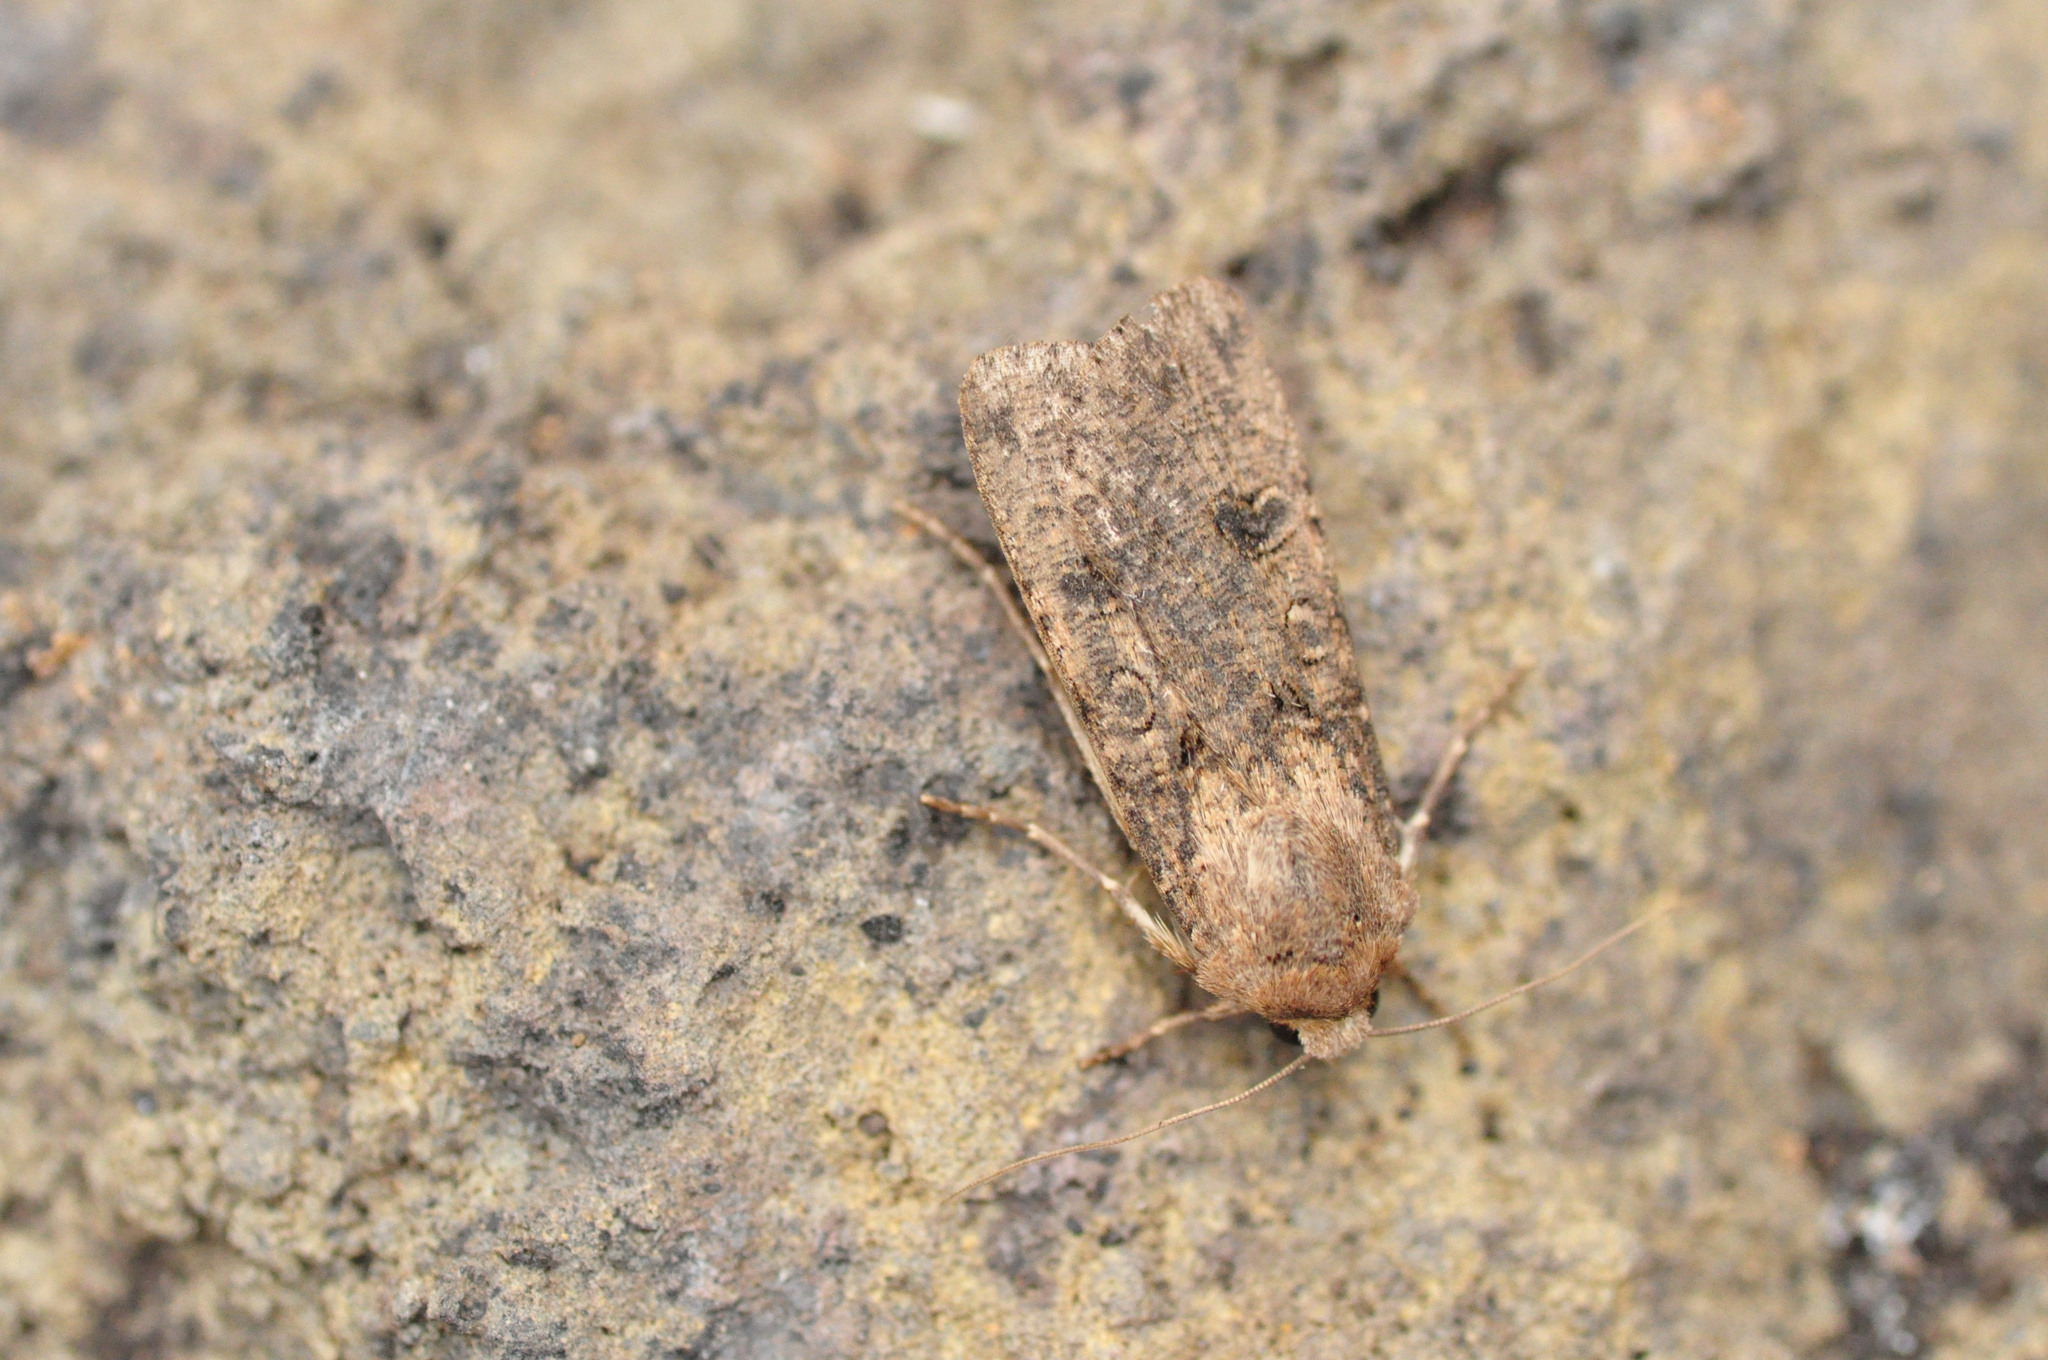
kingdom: Animalia
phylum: Arthropoda
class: Insecta
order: Lepidoptera
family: Noctuidae
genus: Agrotis
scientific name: Agrotis segetum
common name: Turnip moth
